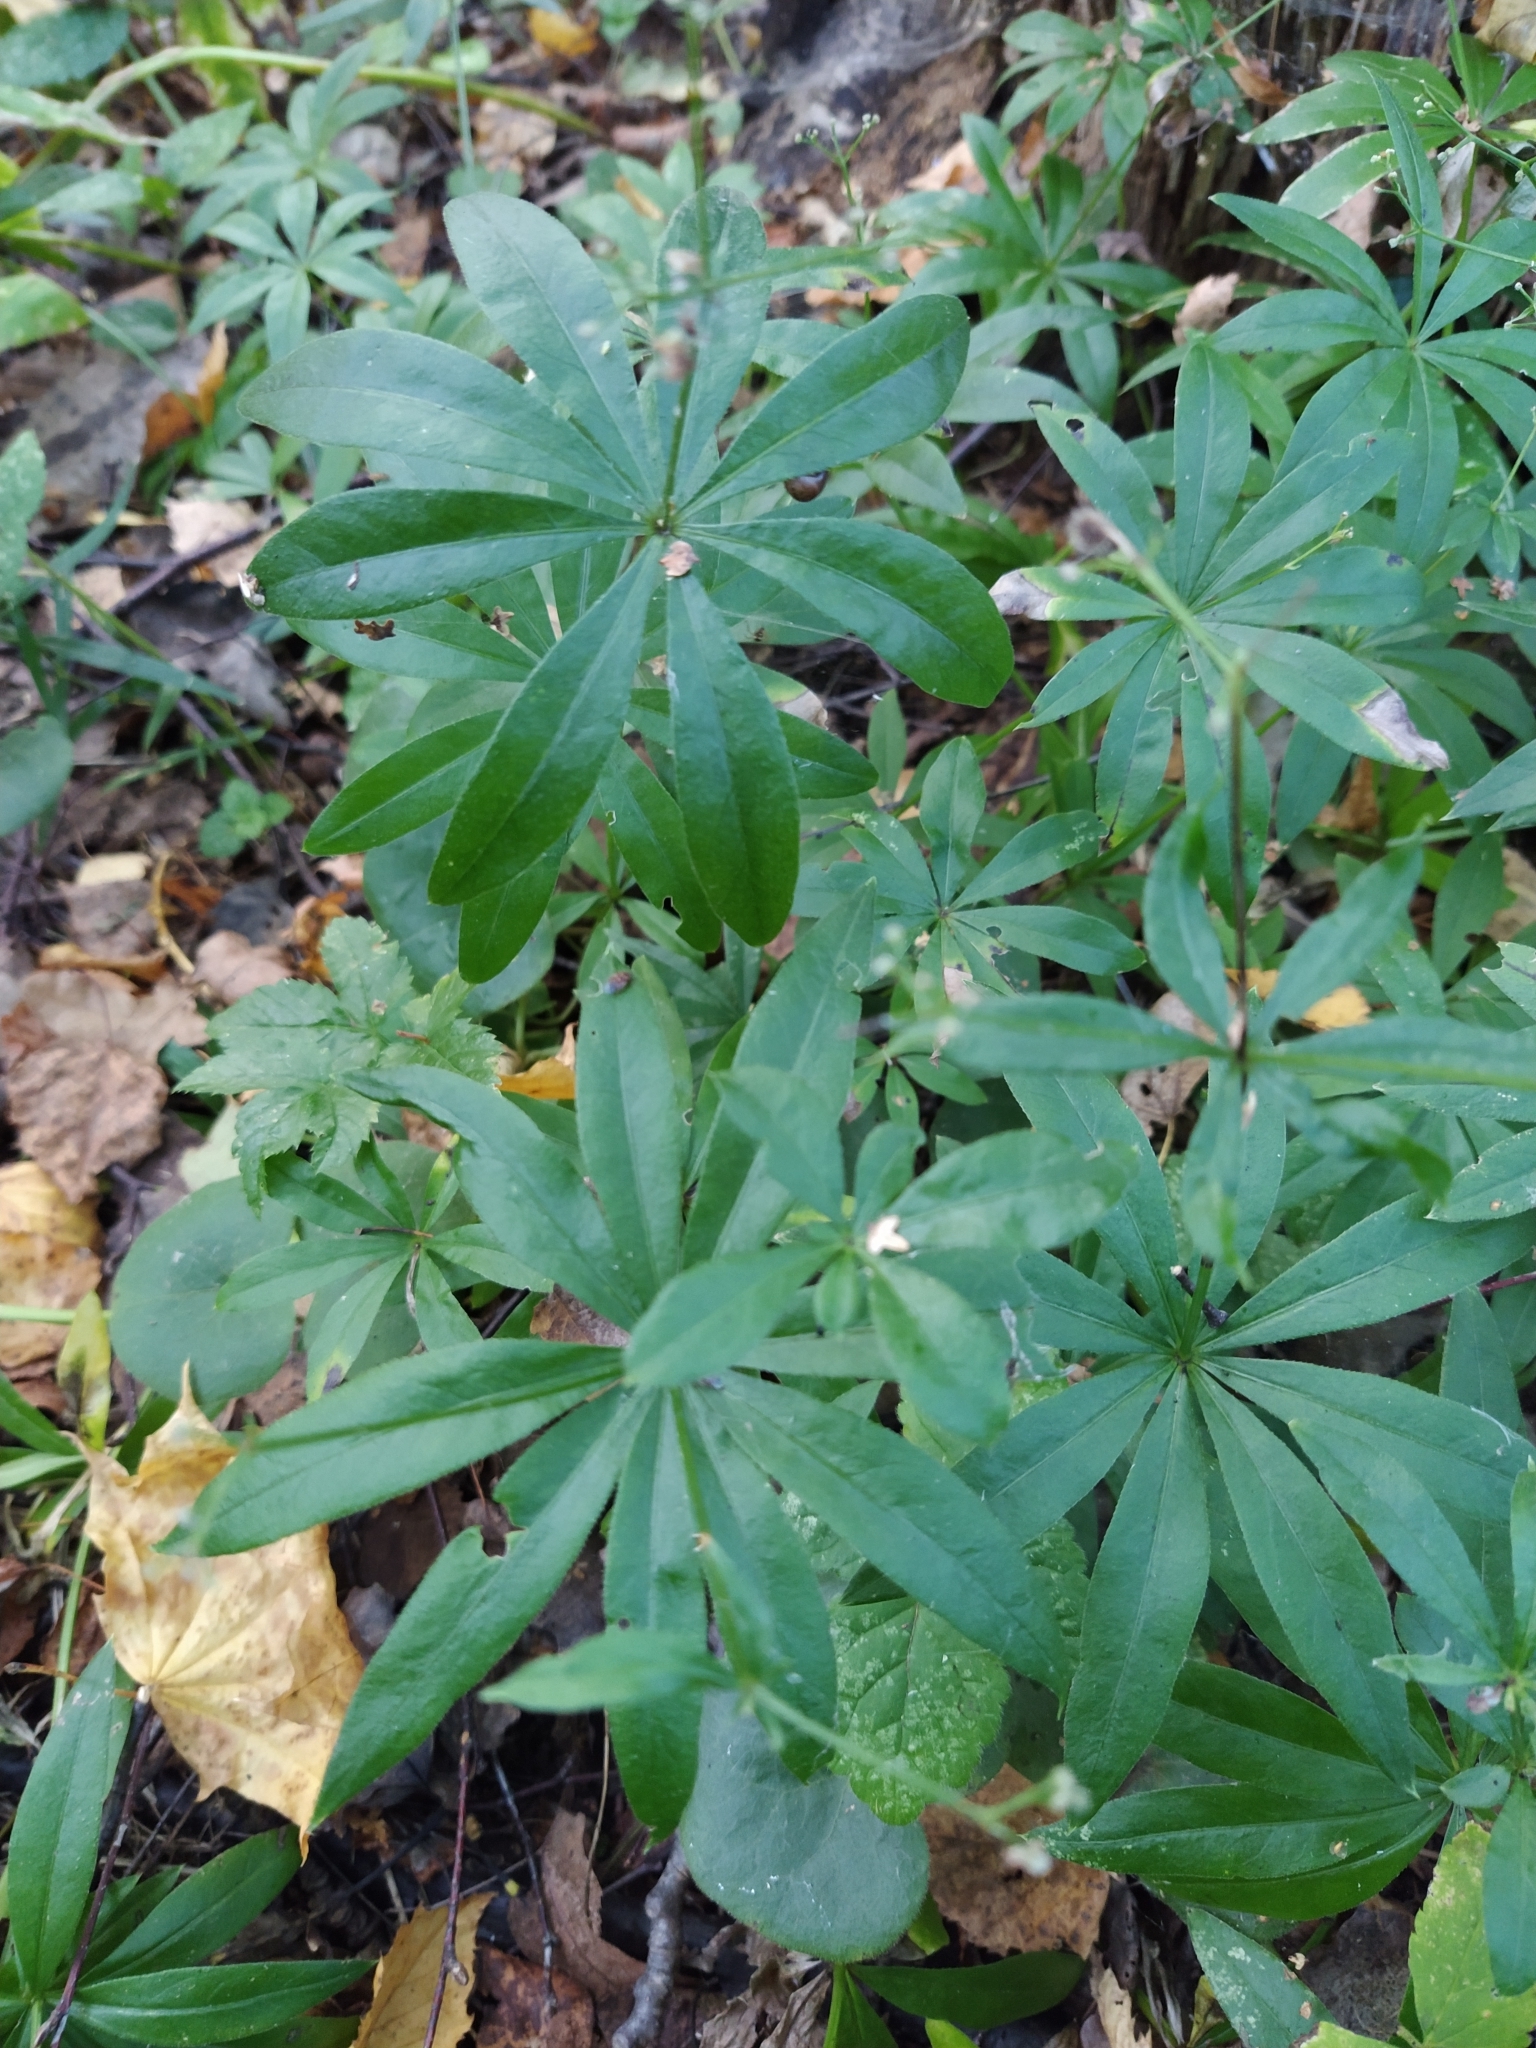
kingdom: Plantae
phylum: Tracheophyta
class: Magnoliopsida
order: Gentianales
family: Rubiaceae
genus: Galium
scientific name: Galium odoratum
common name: Sweet woodruff
